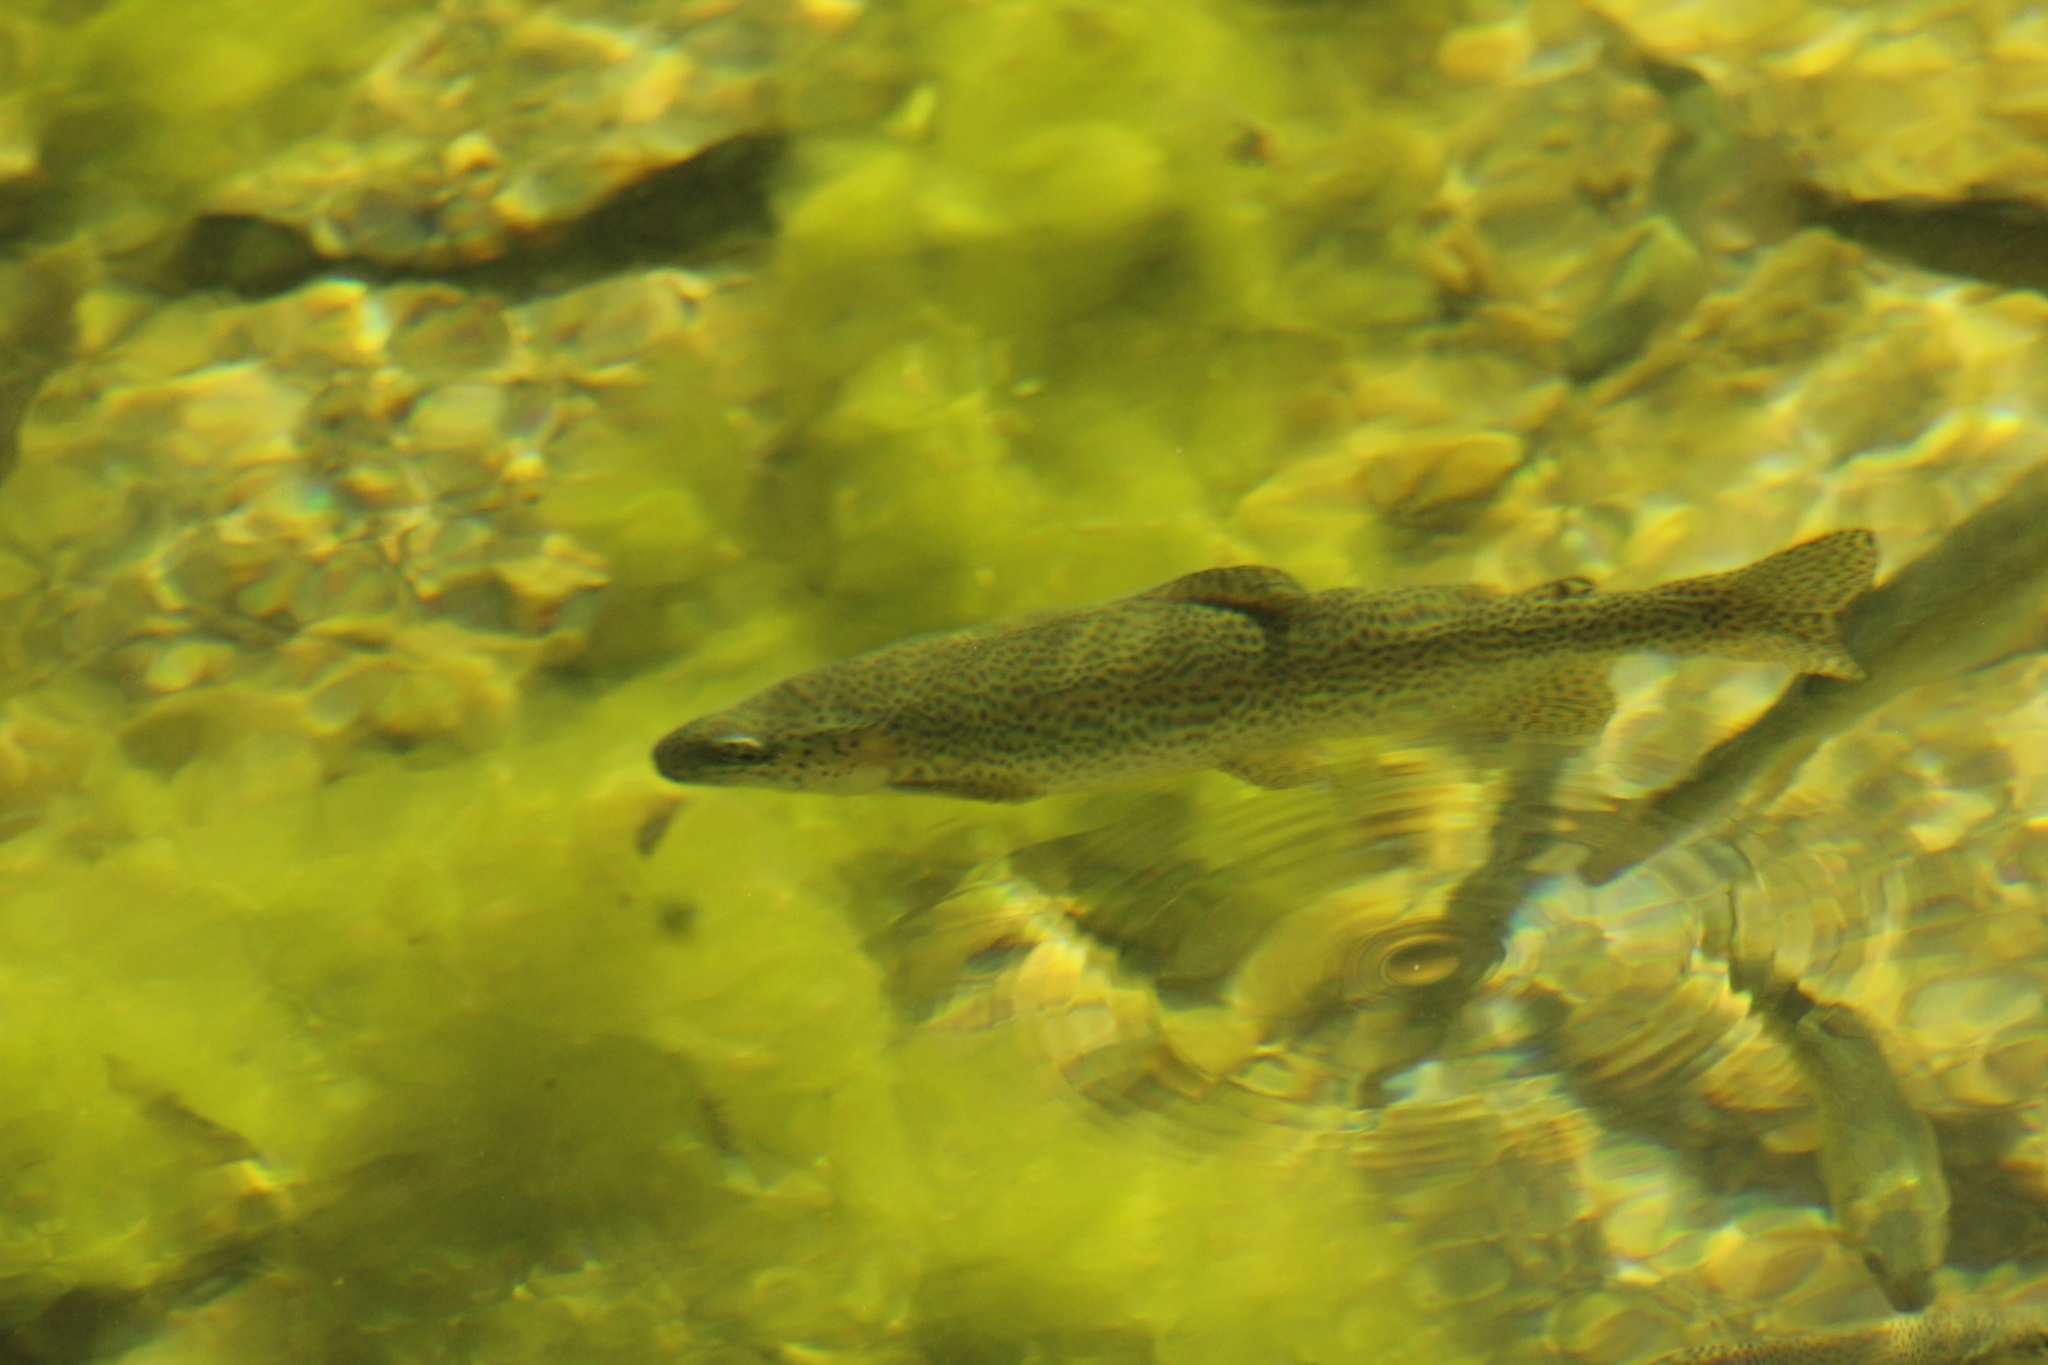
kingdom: Animalia
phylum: Chordata
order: Salmoniformes
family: Salmonidae
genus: Oncorhynchus
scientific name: Oncorhynchus mykiss
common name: Rainbow trout
